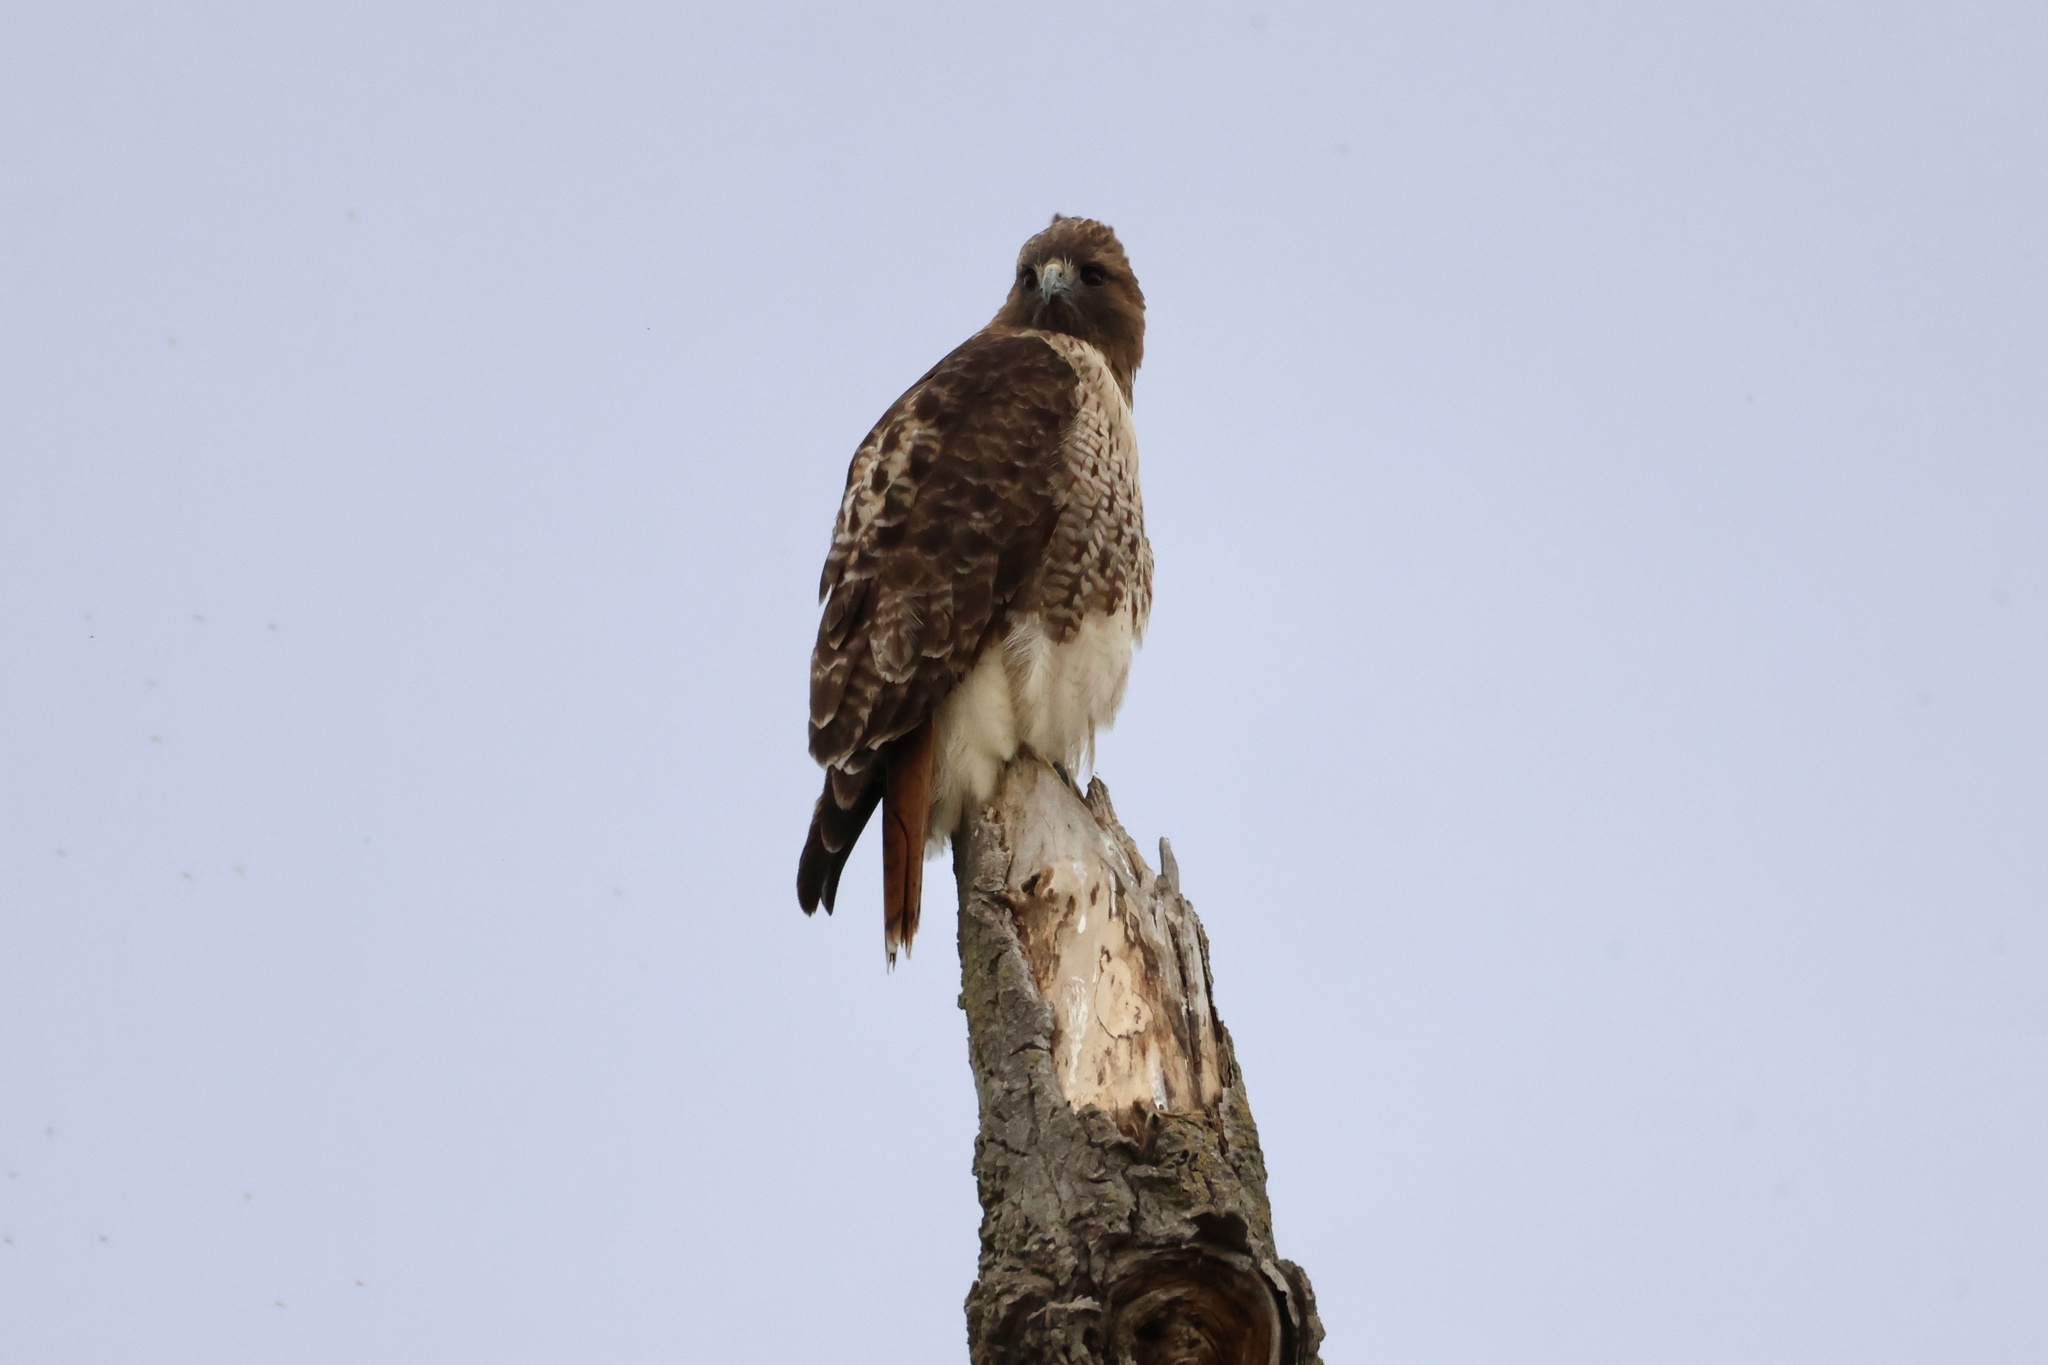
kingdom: Animalia
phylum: Chordata
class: Aves
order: Accipitriformes
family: Accipitridae
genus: Buteo
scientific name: Buteo jamaicensis
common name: Red-tailed hawk
